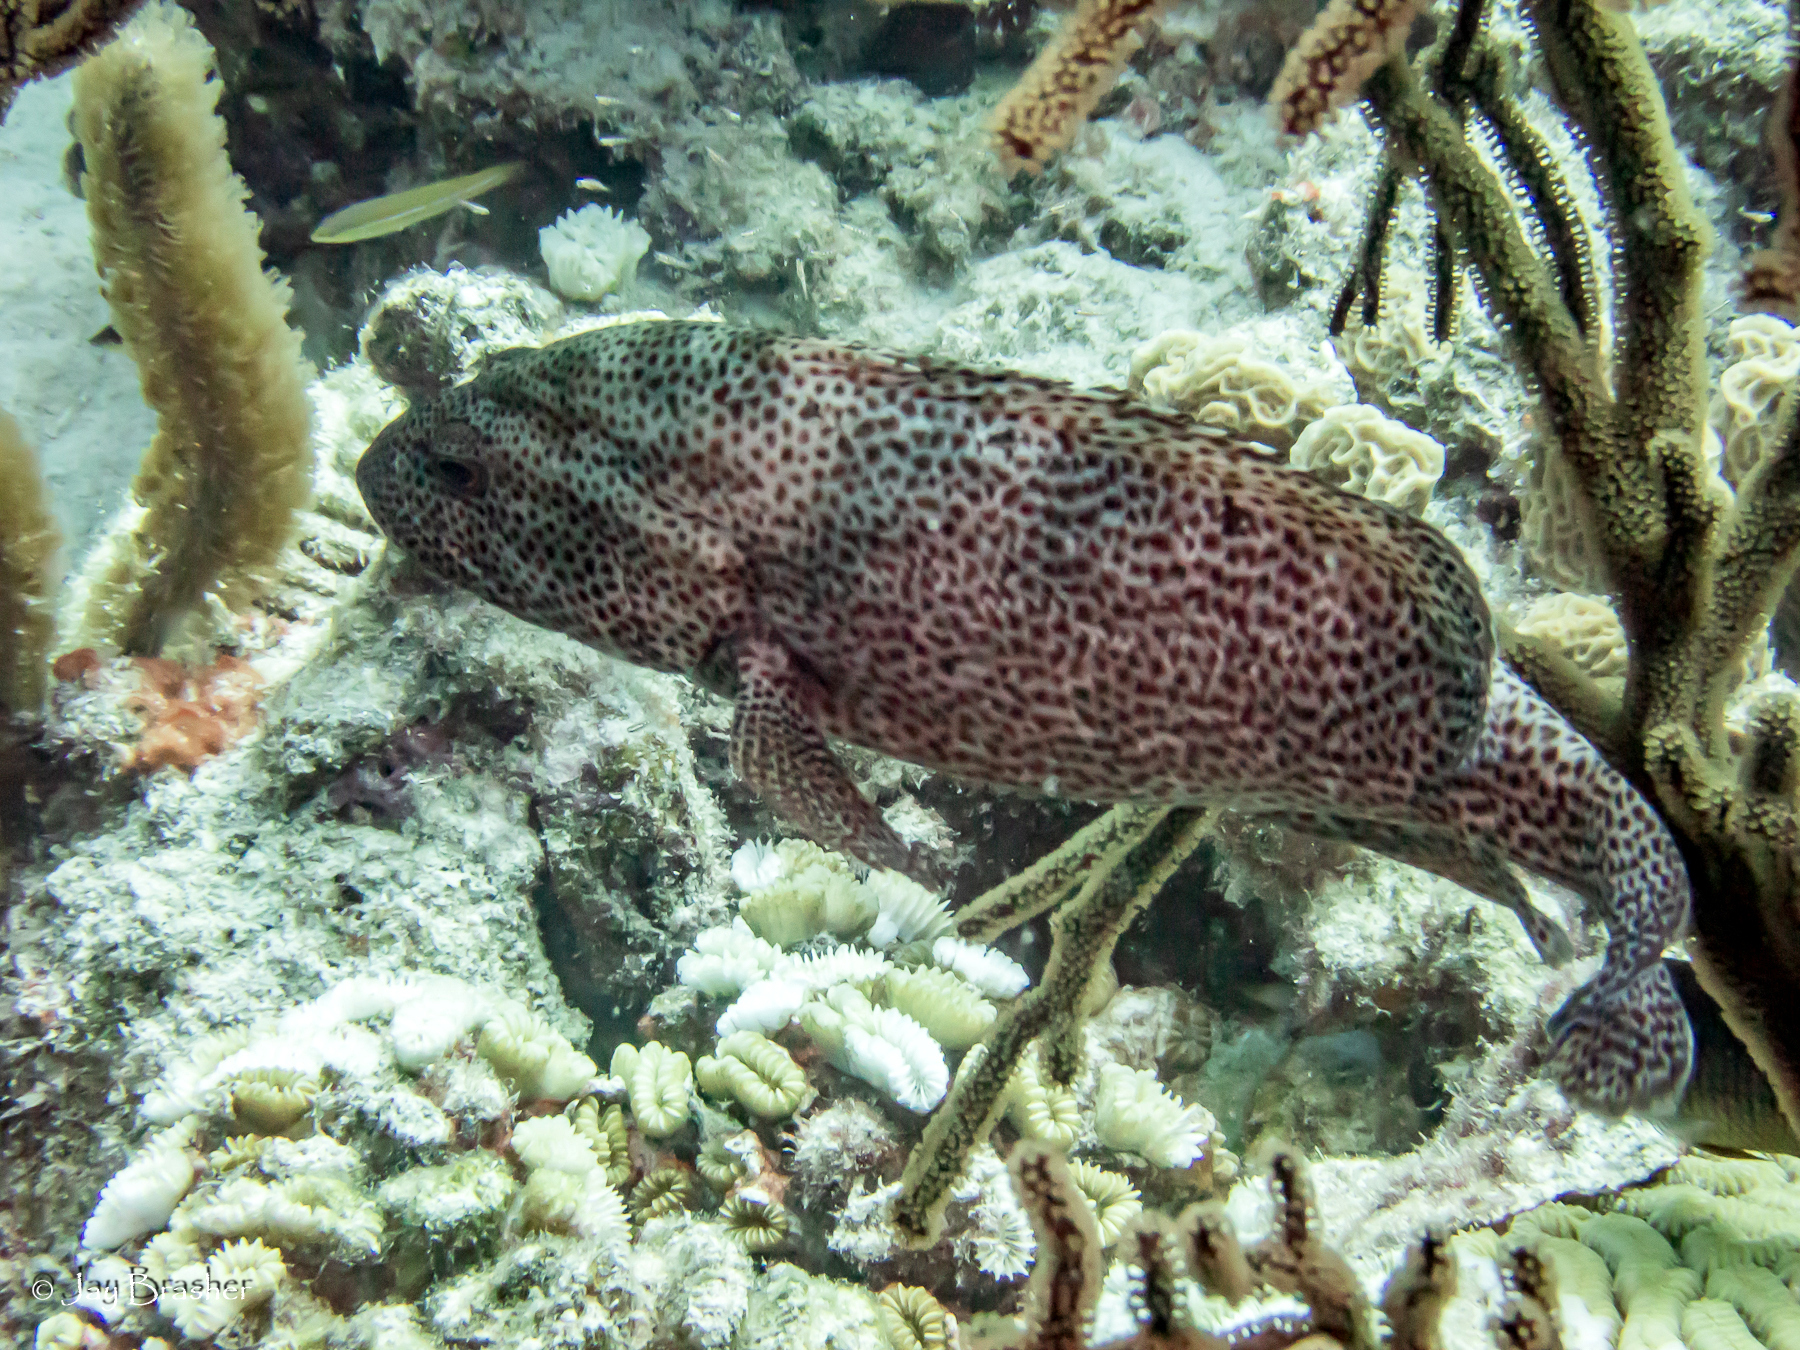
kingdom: Animalia
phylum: Chordata
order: Perciformes
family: Serranidae
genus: Cephalopholis
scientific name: Cephalopholis cruentata
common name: Graysby
